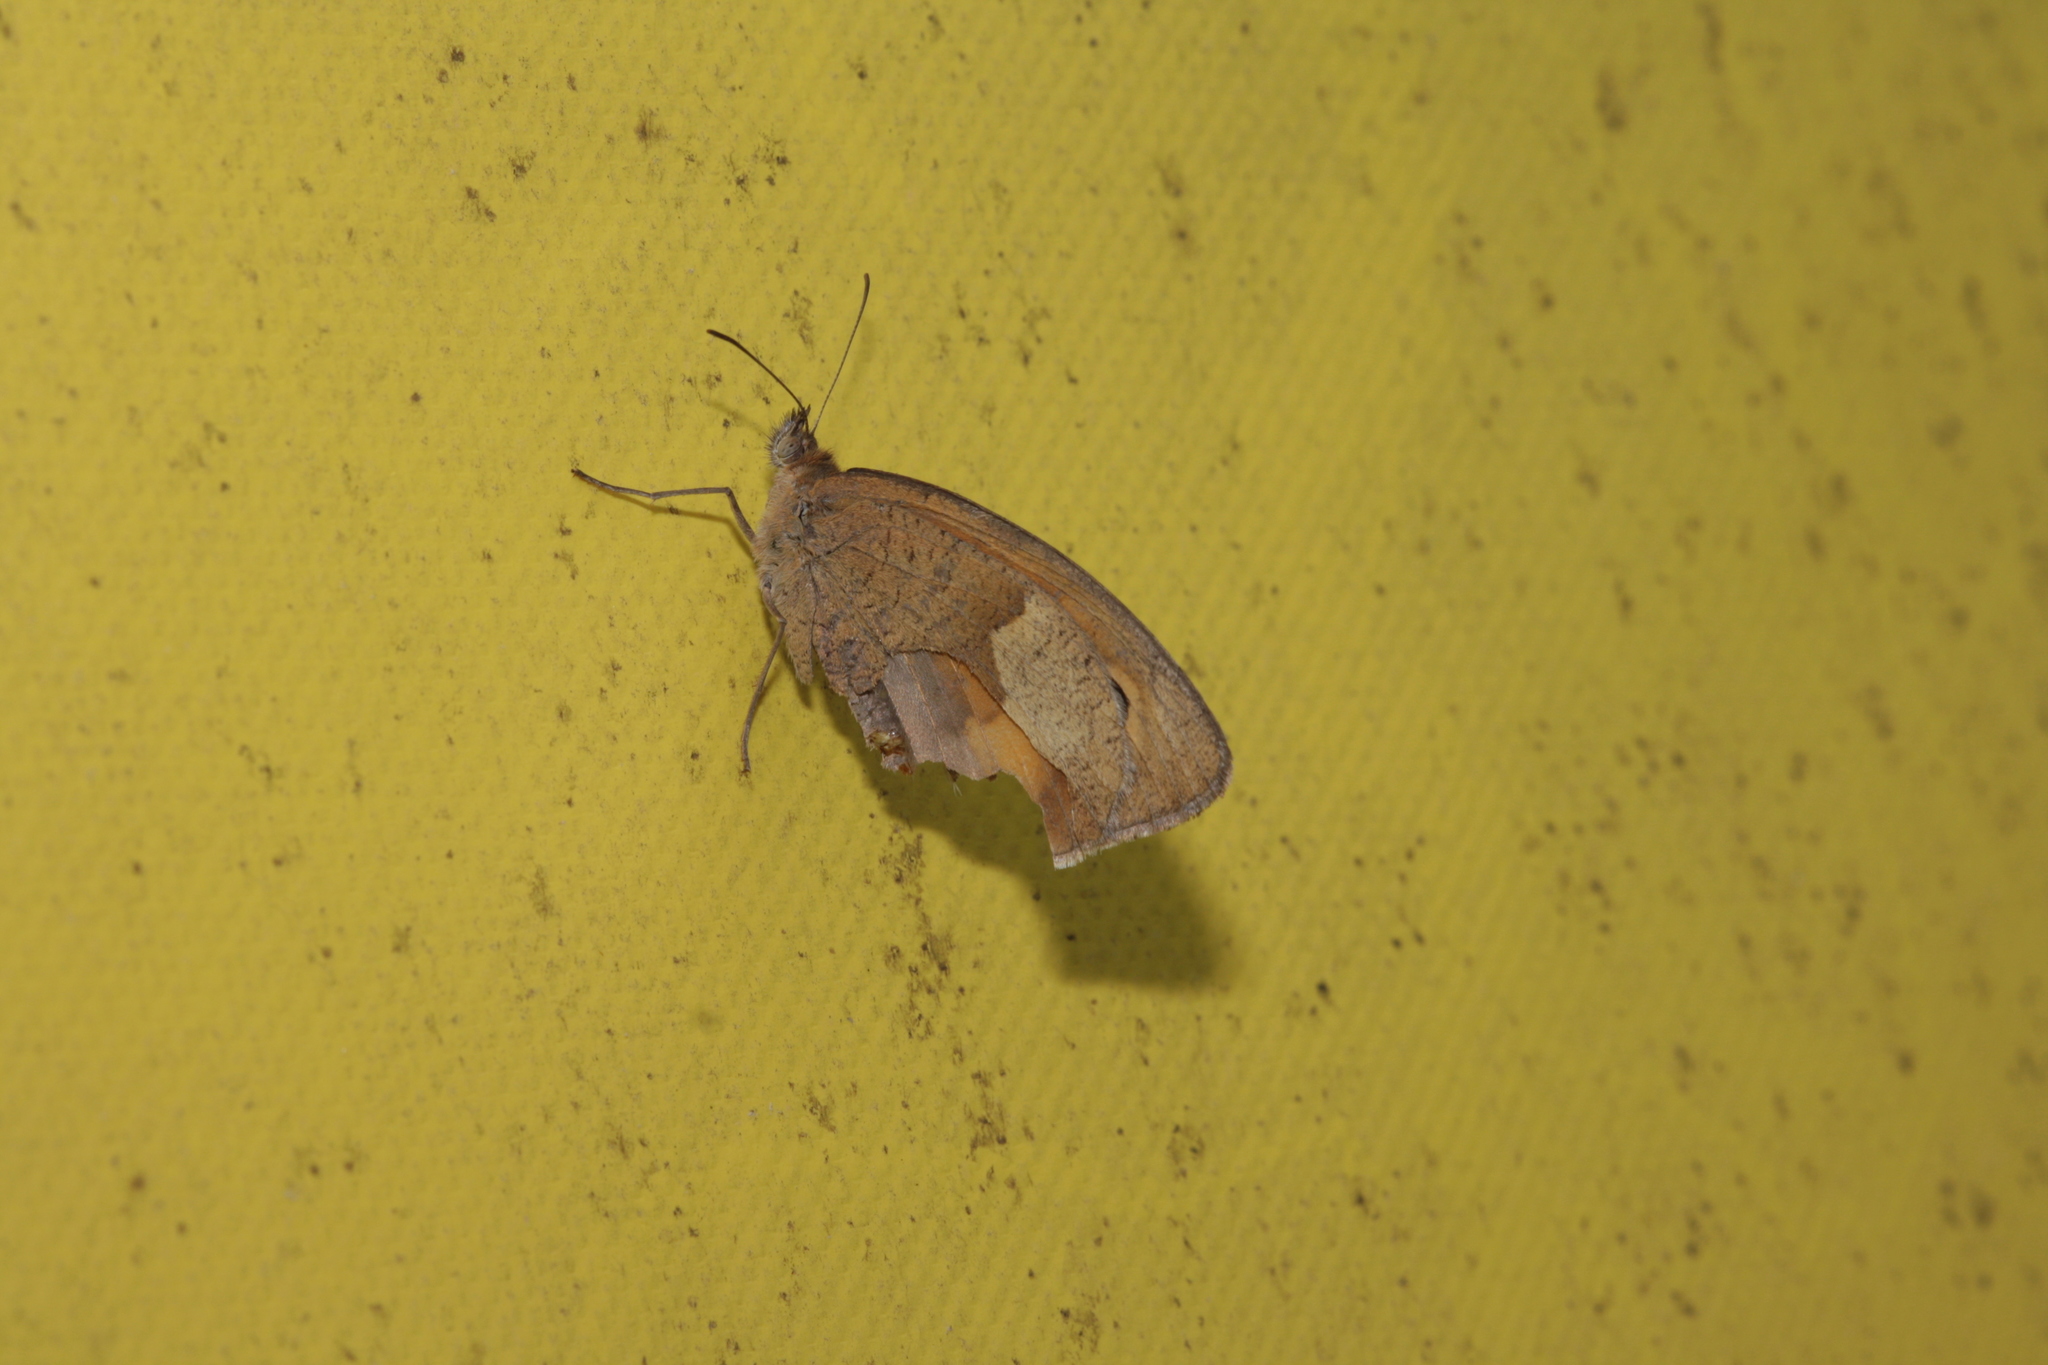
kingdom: Animalia
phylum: Arthropoda
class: Insecta
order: Lepidoptera
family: Nymphalidae
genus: Maniola
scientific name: Maniola jurtina
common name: Meadow brown
